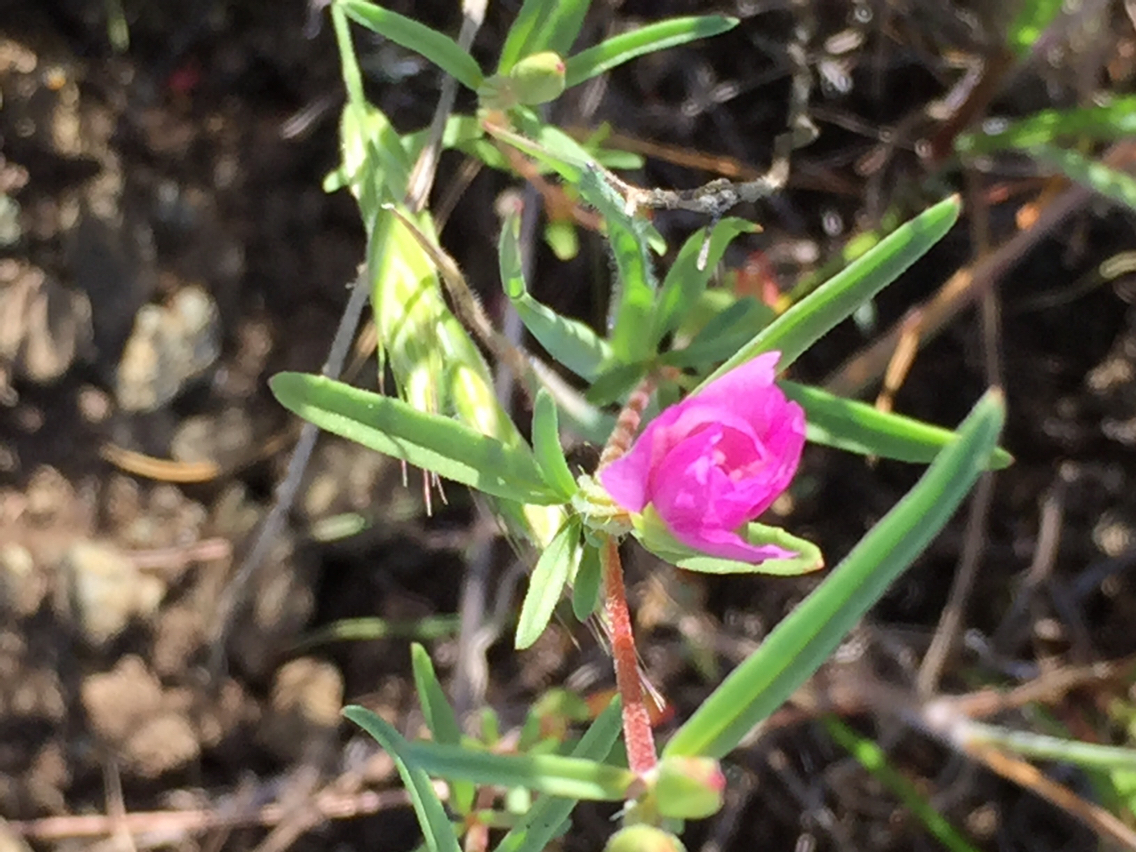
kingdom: Plantae
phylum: Tracheophyta
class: Magnoliopsida
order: Myrtales
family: Onagraceae
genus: Clarkia
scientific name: Clarkia rubicunda
